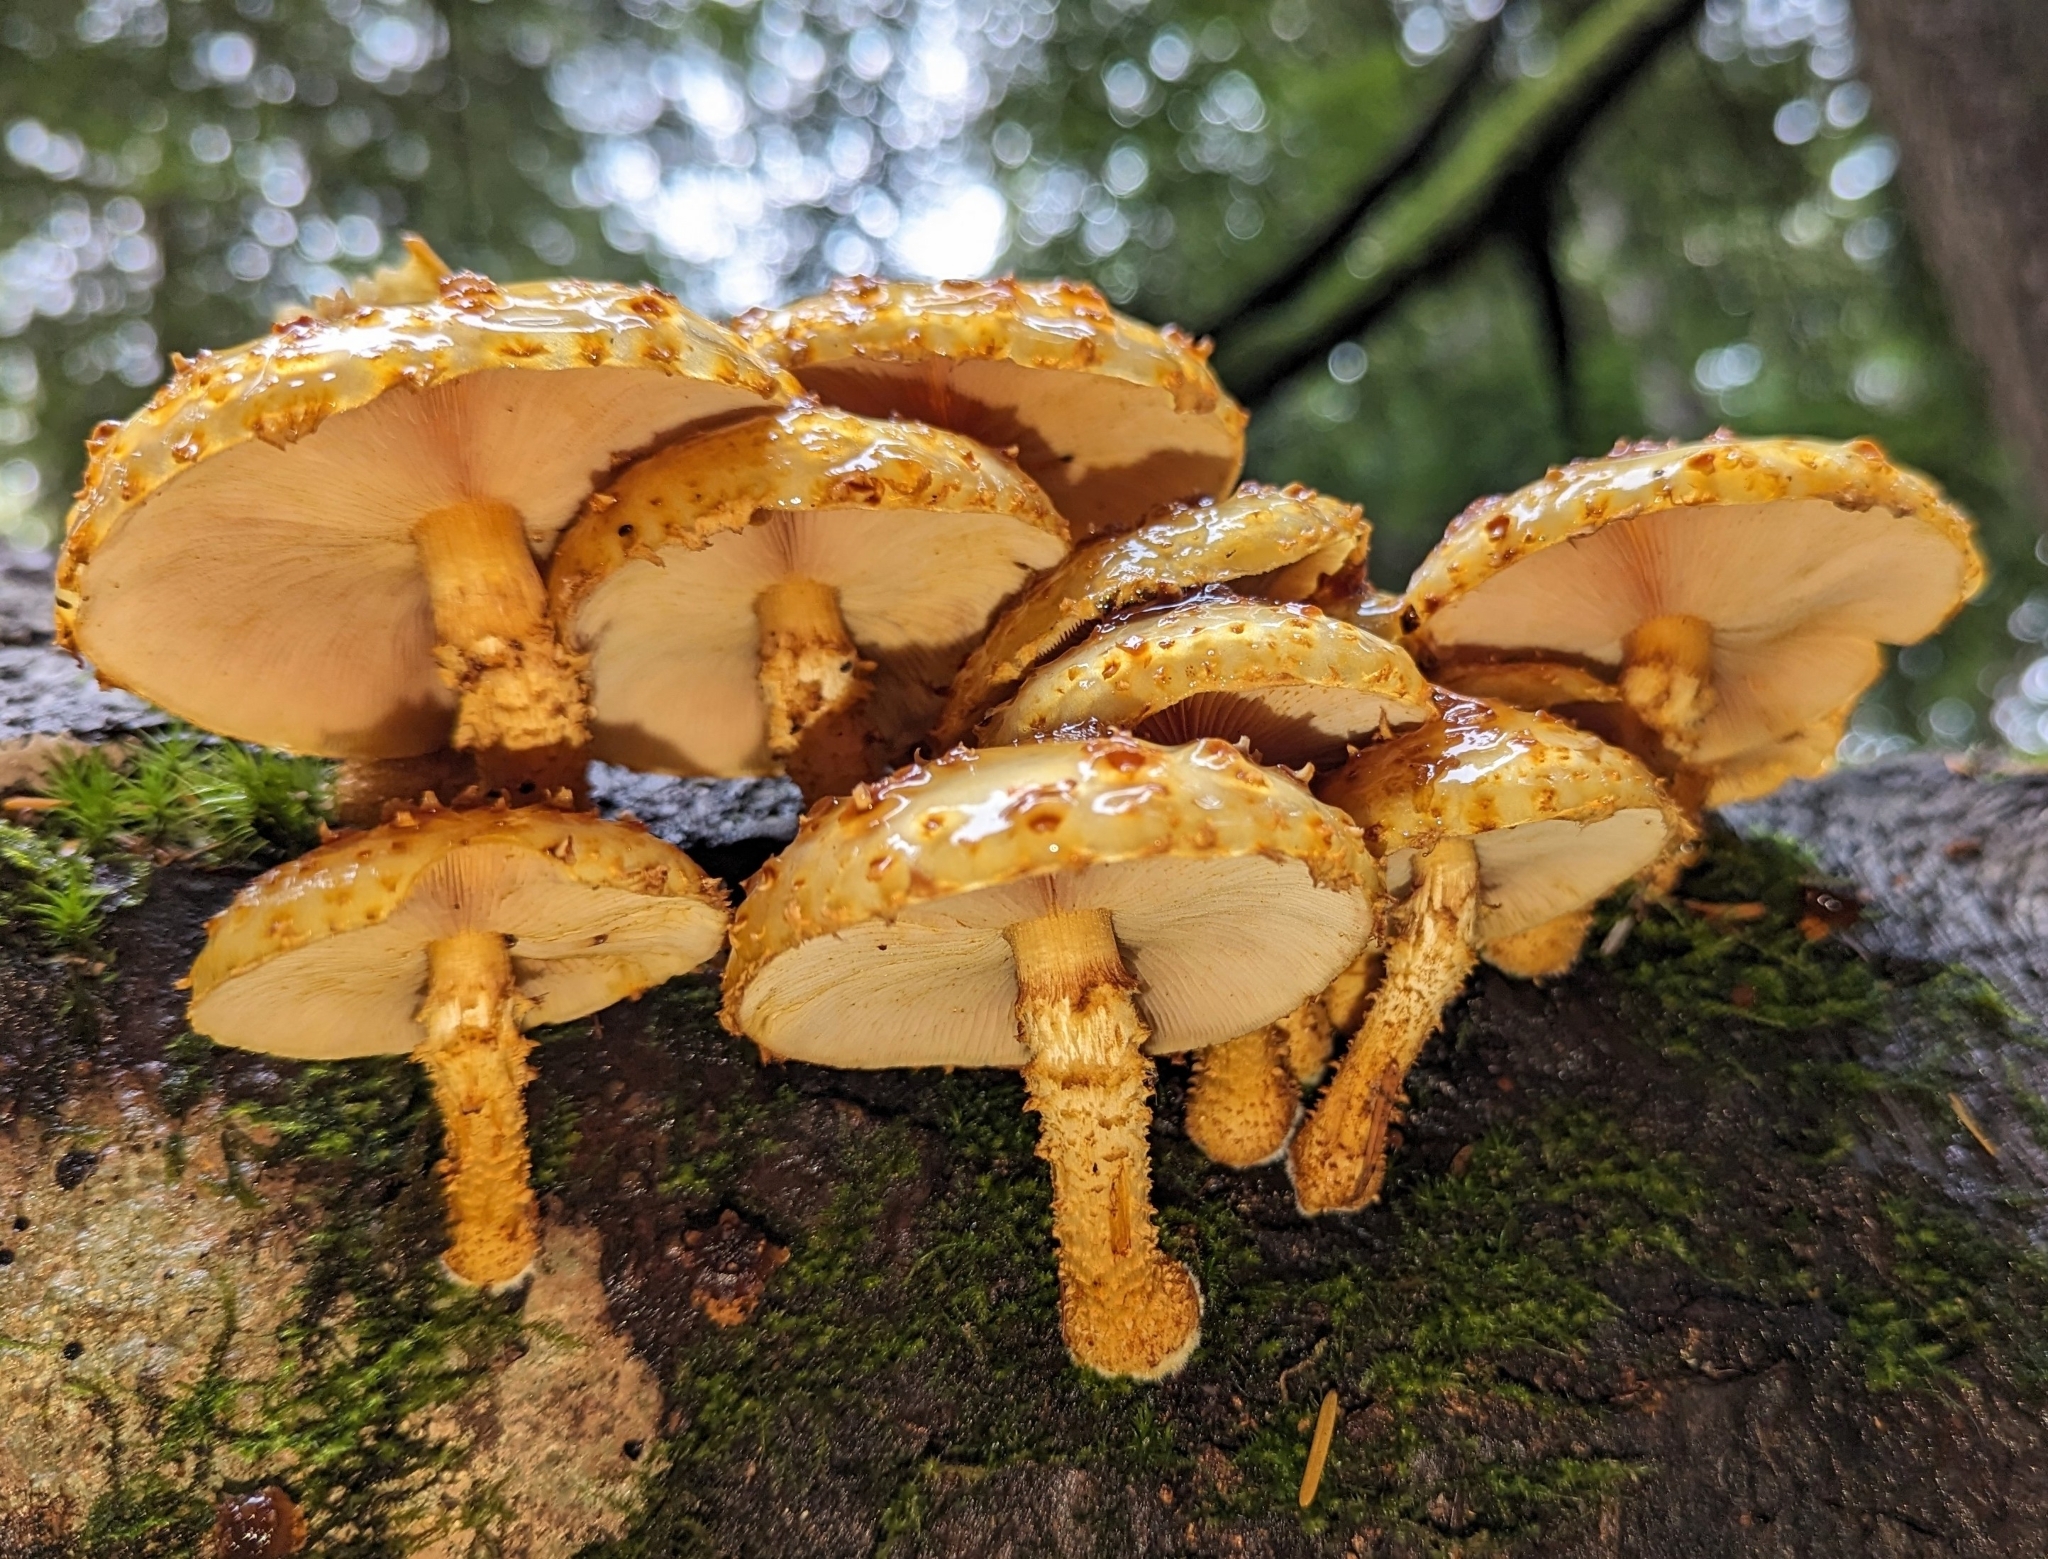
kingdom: Fungi
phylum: Basidiomycota
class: Agaricomycetes
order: Agaricales
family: Strophariaceae
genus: Pholiota
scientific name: Pholiota aurivella
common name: Golden scalycap
